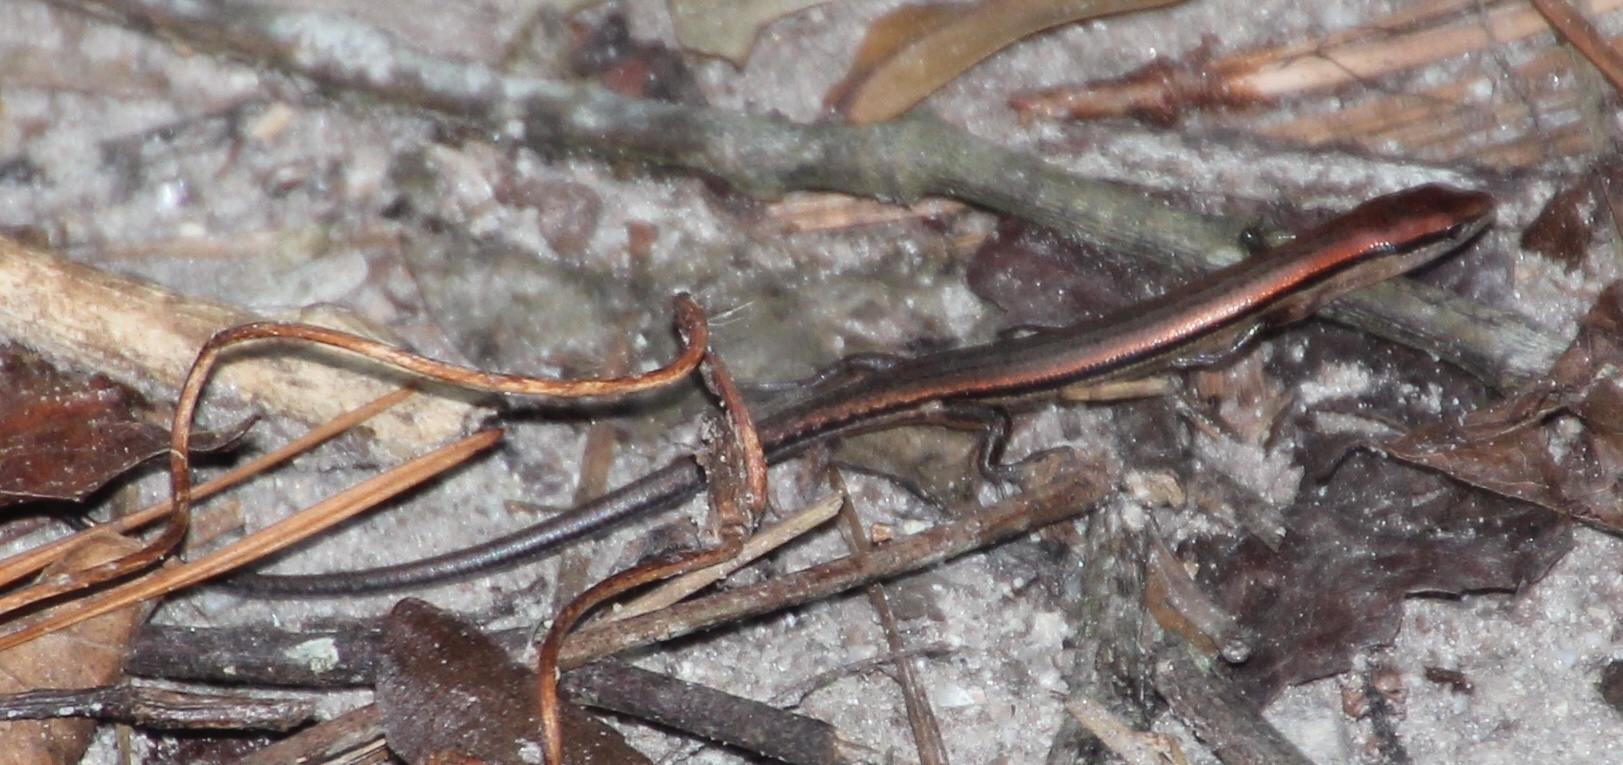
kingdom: Animalia
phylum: Chordata
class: Squamata
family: Scincidae
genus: Scincella
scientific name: Scincella lateralis
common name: Ground skink
